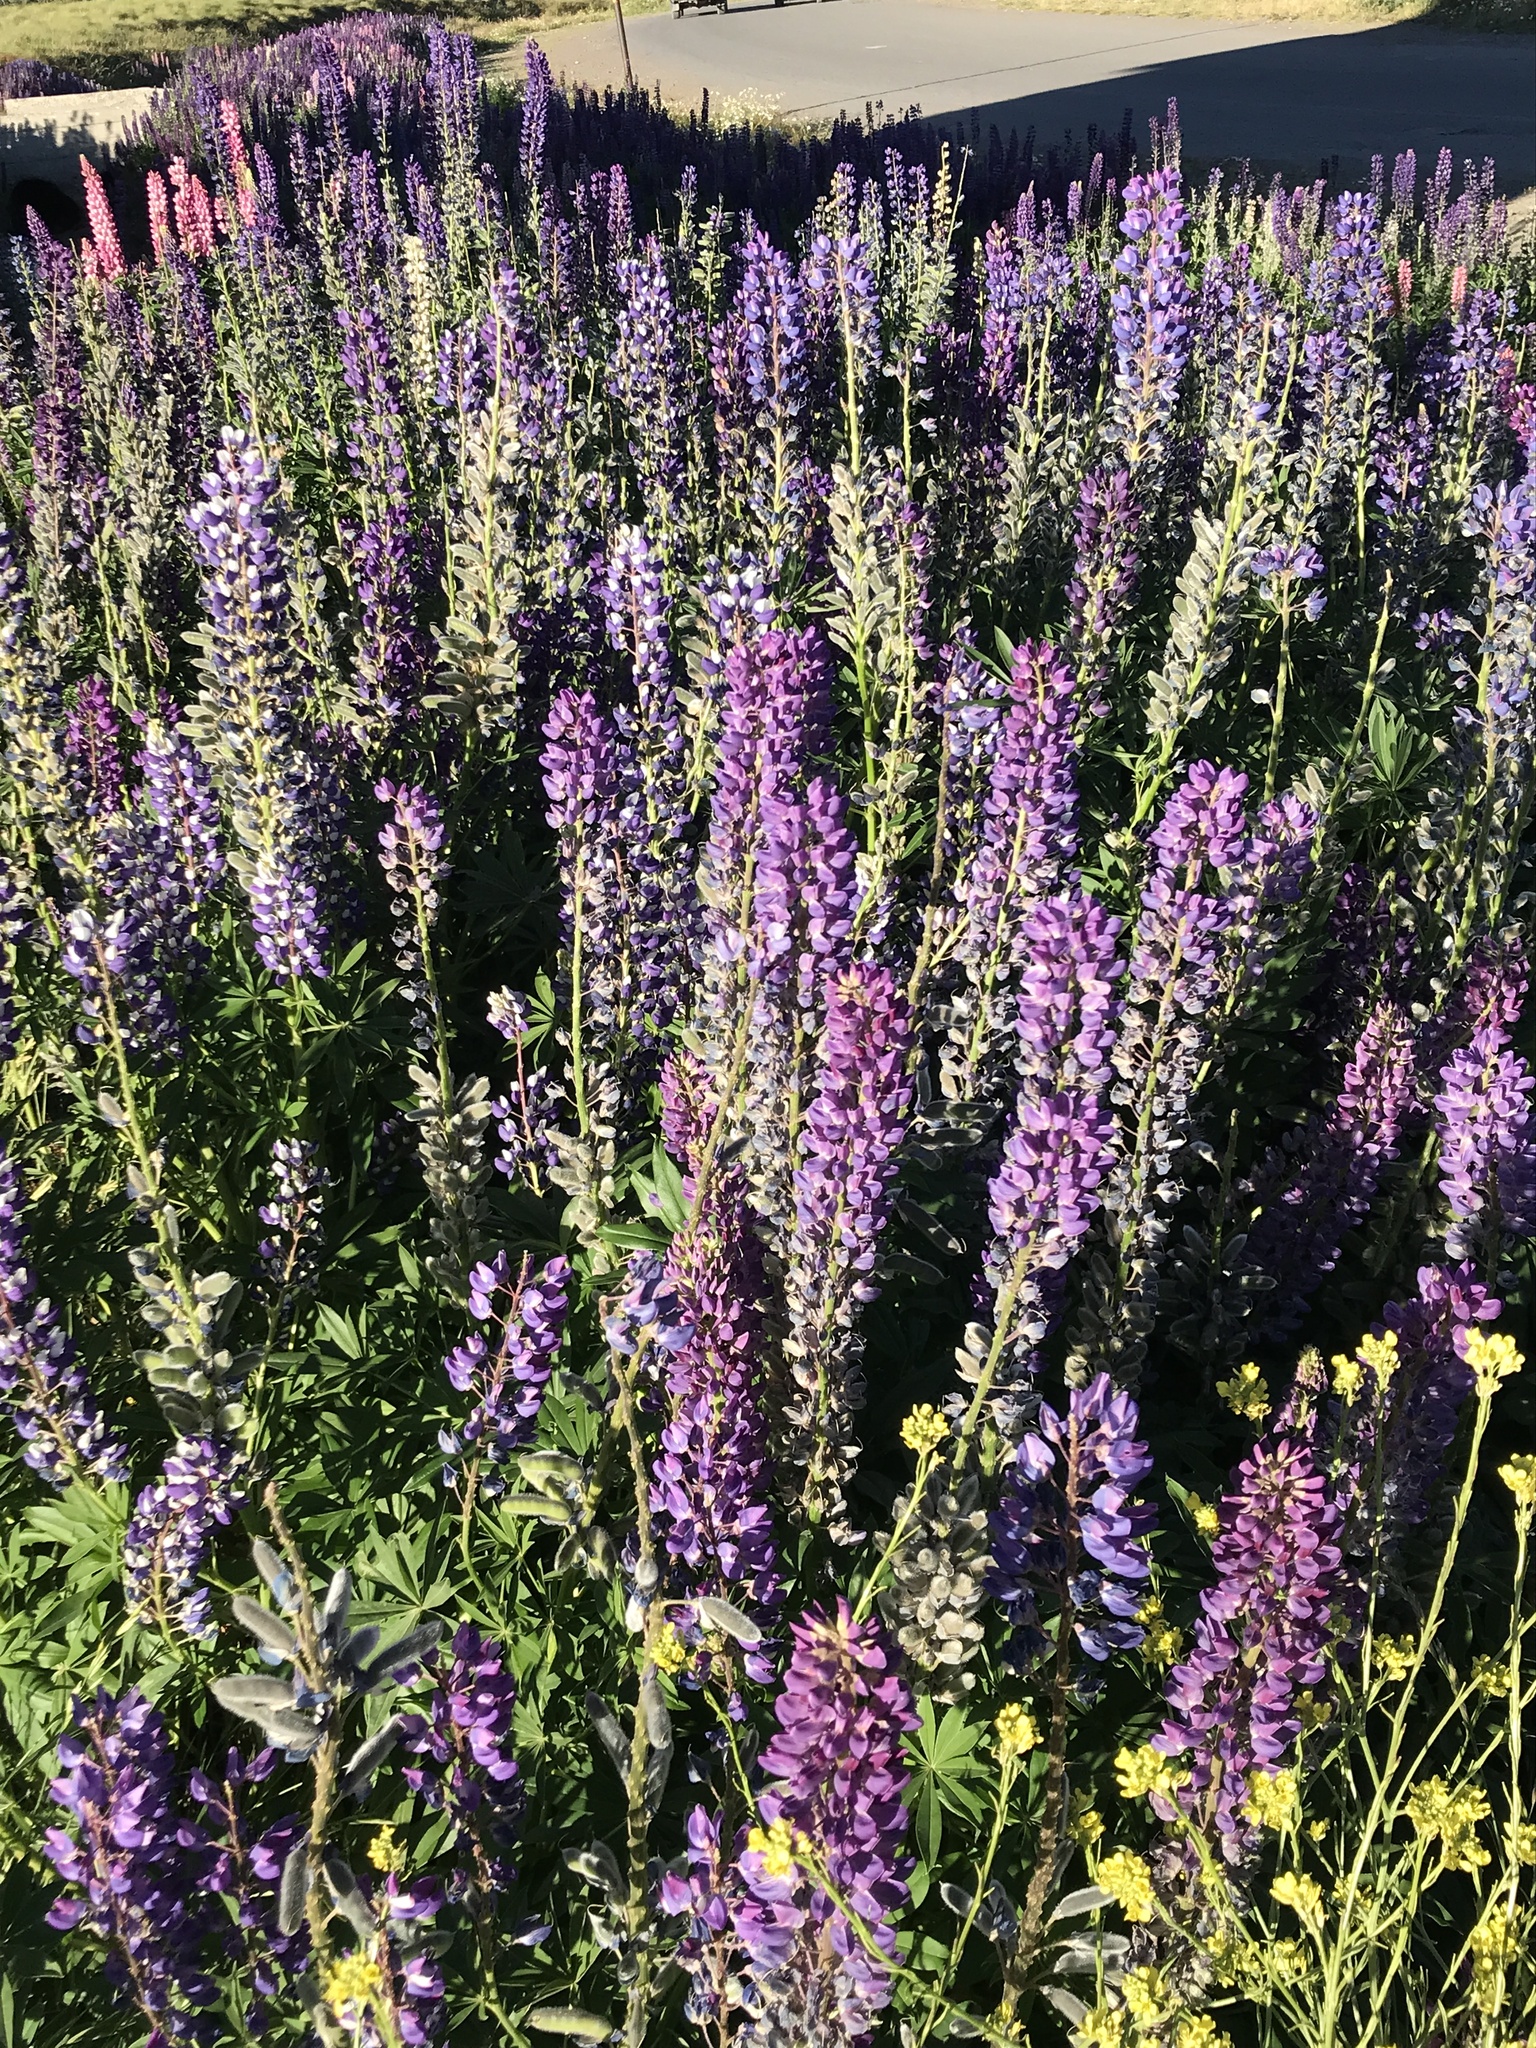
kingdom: Plantae
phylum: Tracheophyta
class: Magnoliopsida
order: Fabales
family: Fabaceae
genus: Lupinus
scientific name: Lupinus polyphyllus
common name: Garden lupin
